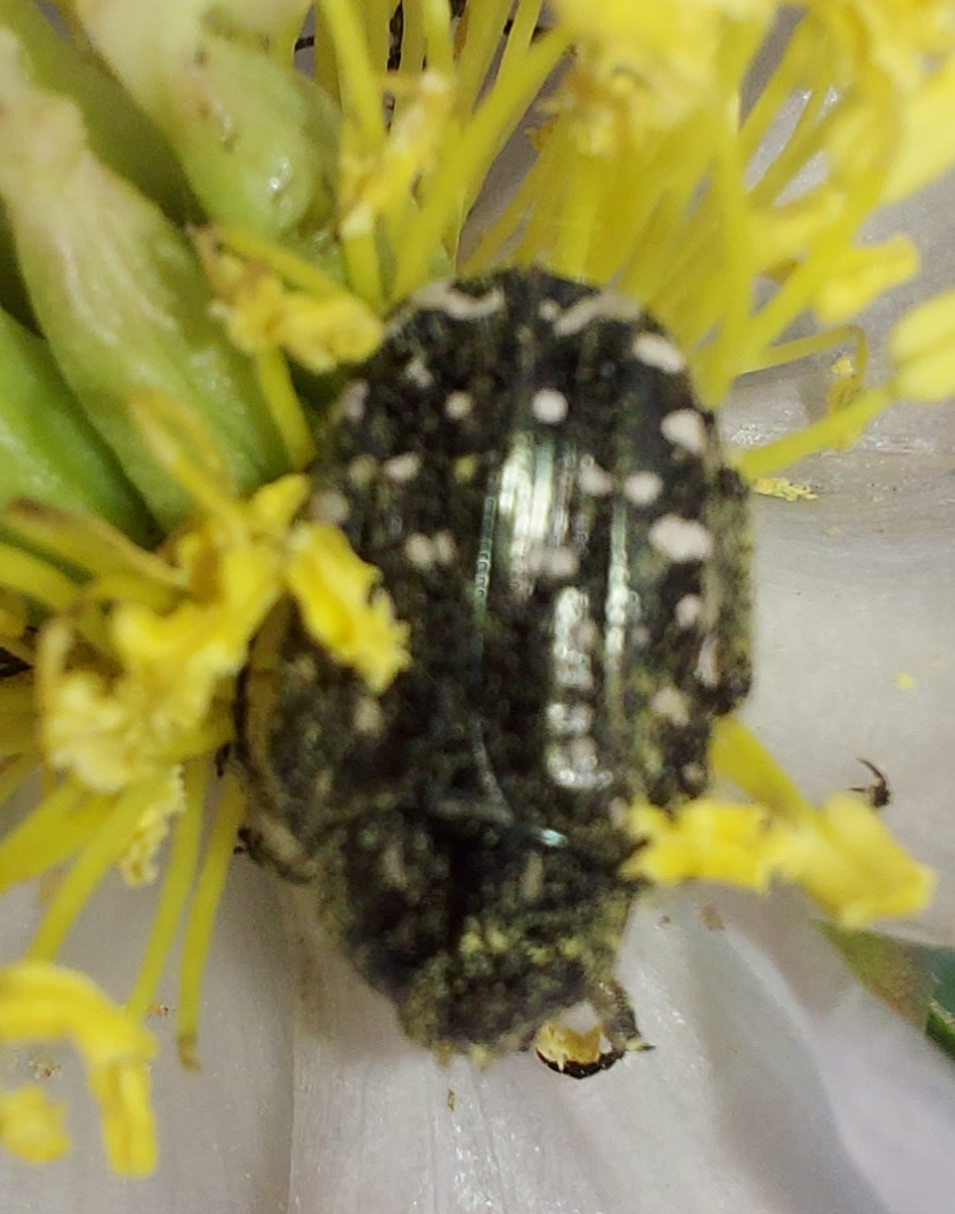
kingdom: Animalia
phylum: Arthropoda
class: Insecta
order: Coleoptera
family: Scarabaeidae
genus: Oxythyrea
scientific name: Oxythyrea funesta
